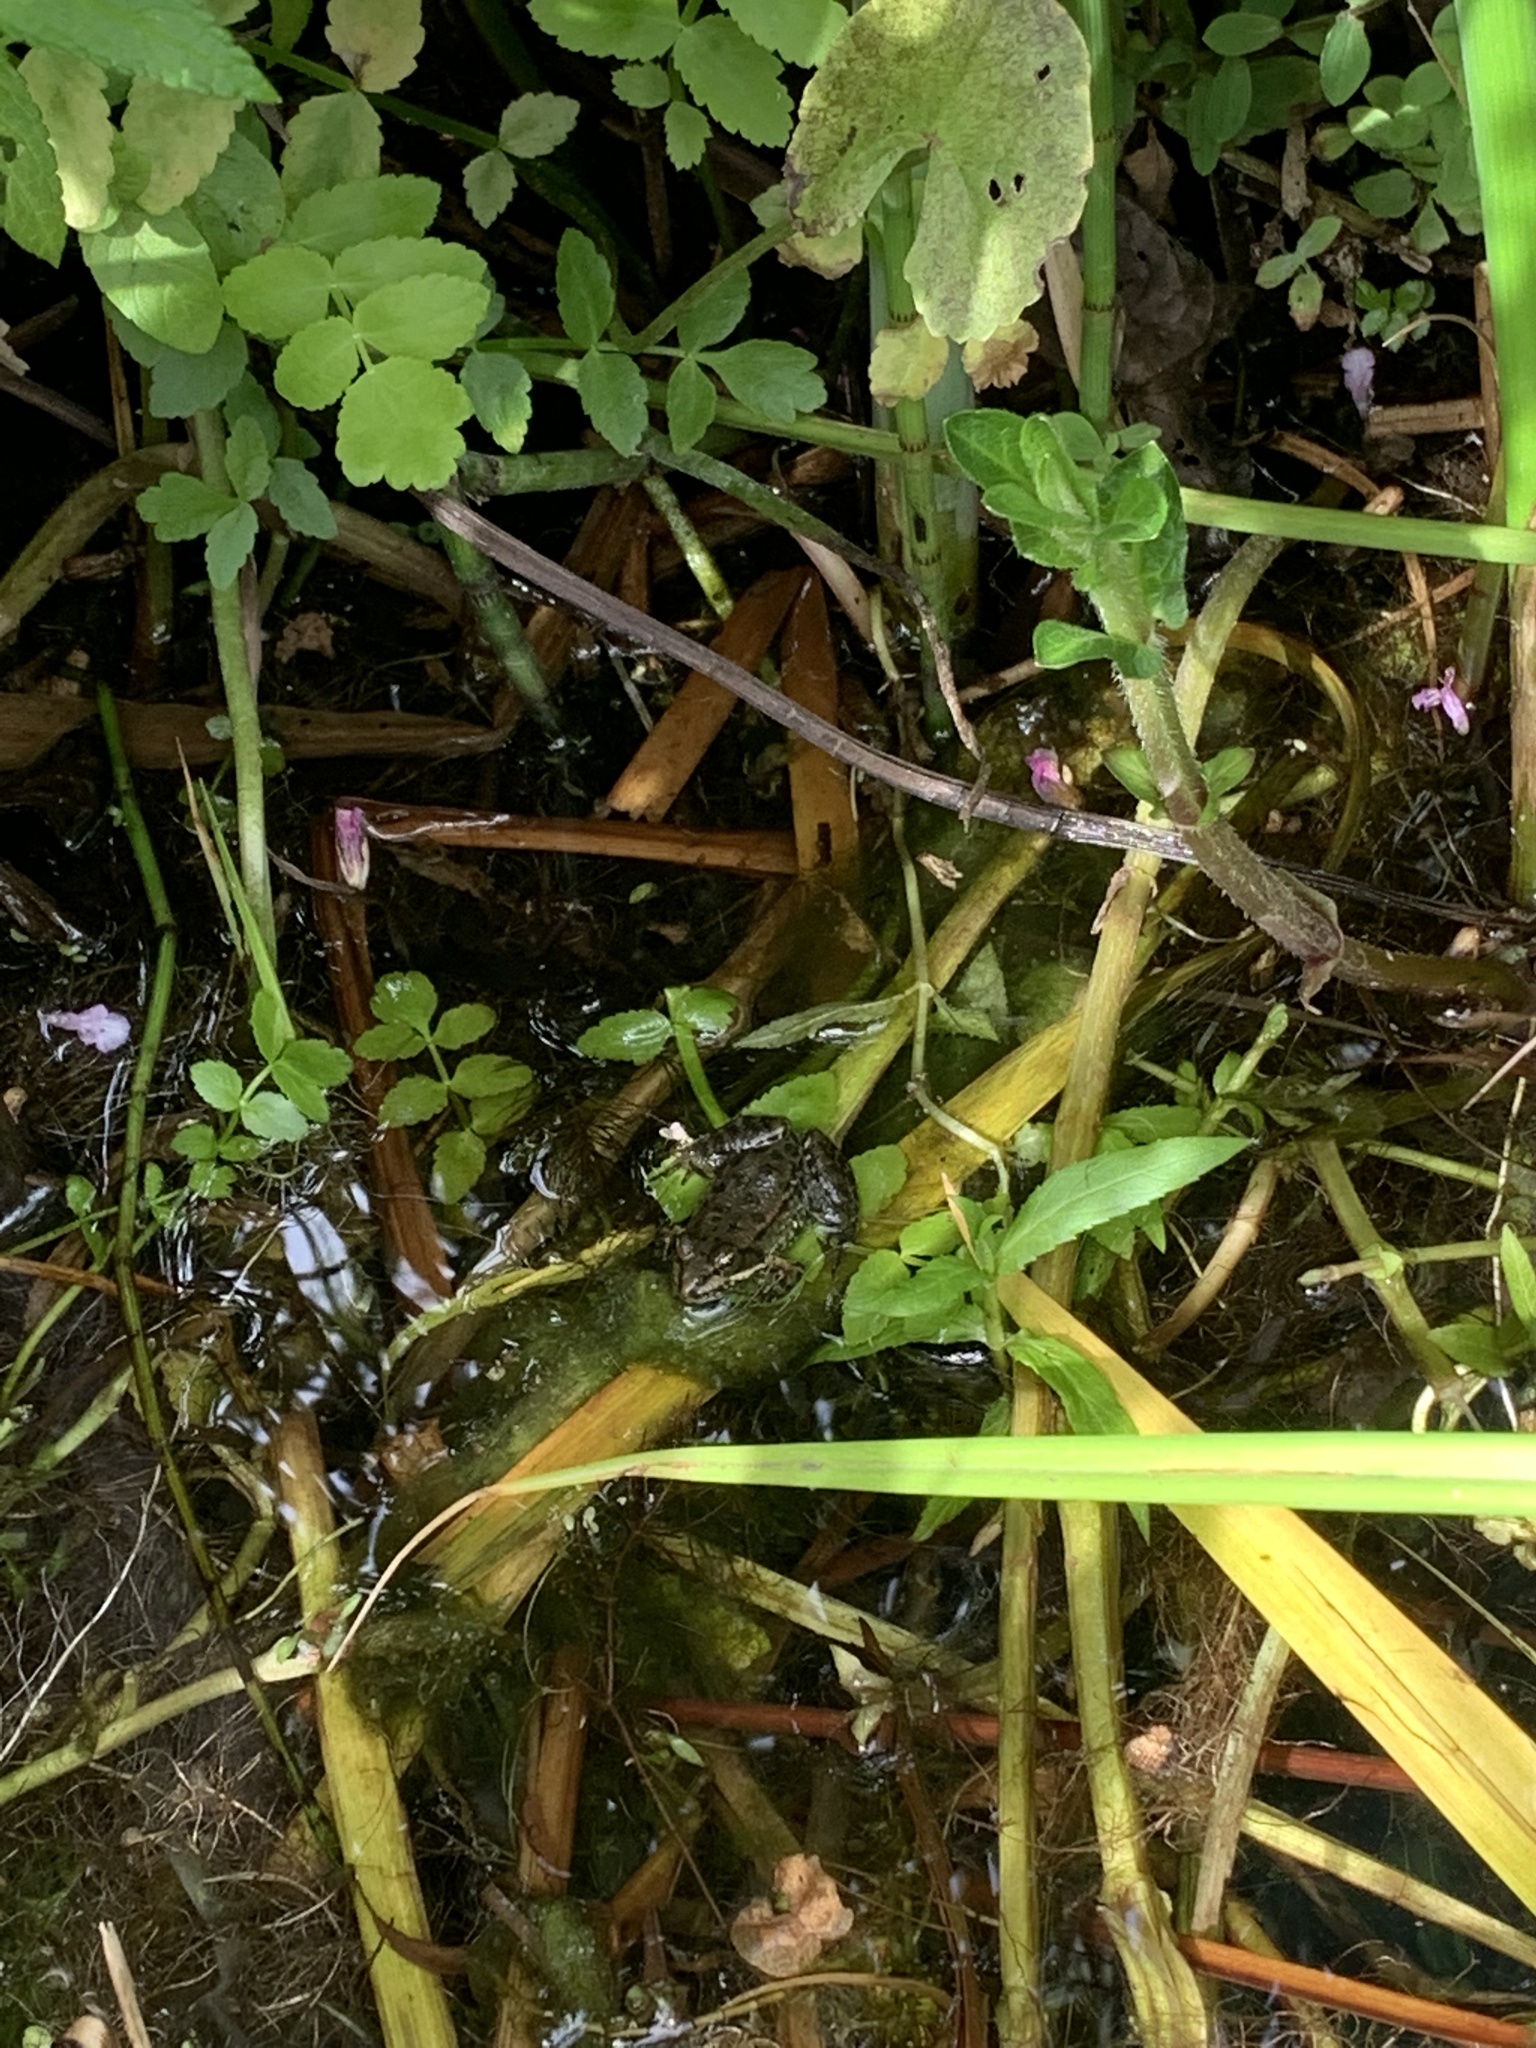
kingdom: Animalia
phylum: Chordata
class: Amphibia
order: Anura
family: Ranidae
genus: Rana
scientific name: Rana temporaria
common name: Common frog
